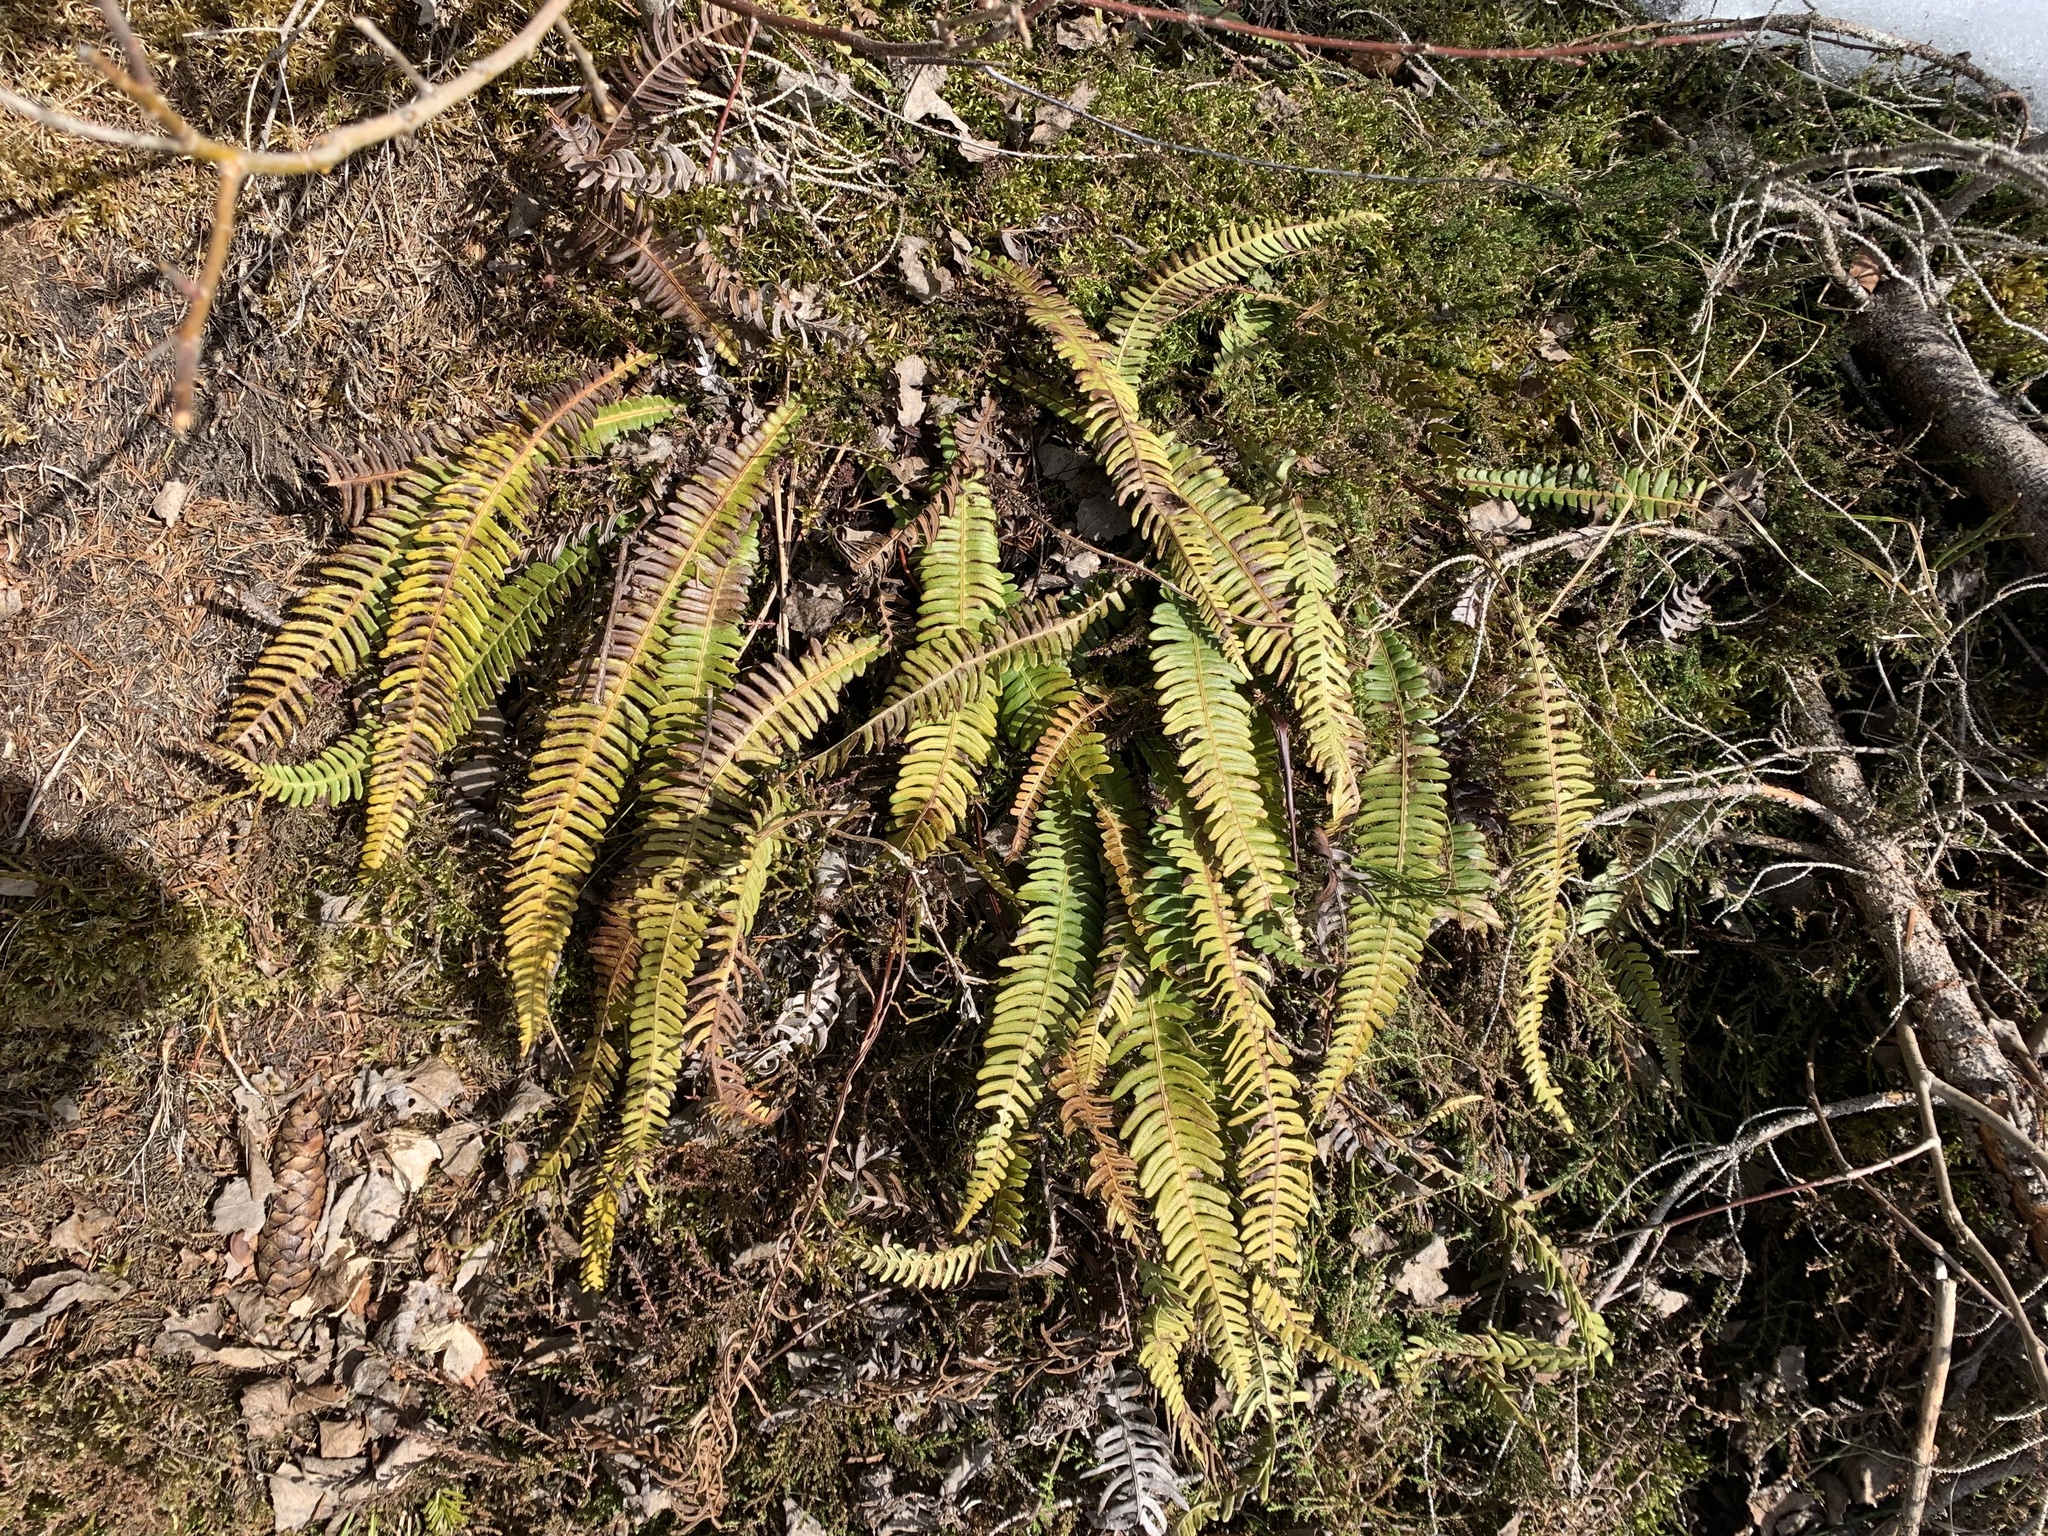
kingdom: Plantae
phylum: Tracheophyta
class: Polypodiopsida
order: Polypodiales
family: Blechnaceae
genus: Struthiopteris
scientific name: Struthiopteris spicant
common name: Deer fern
